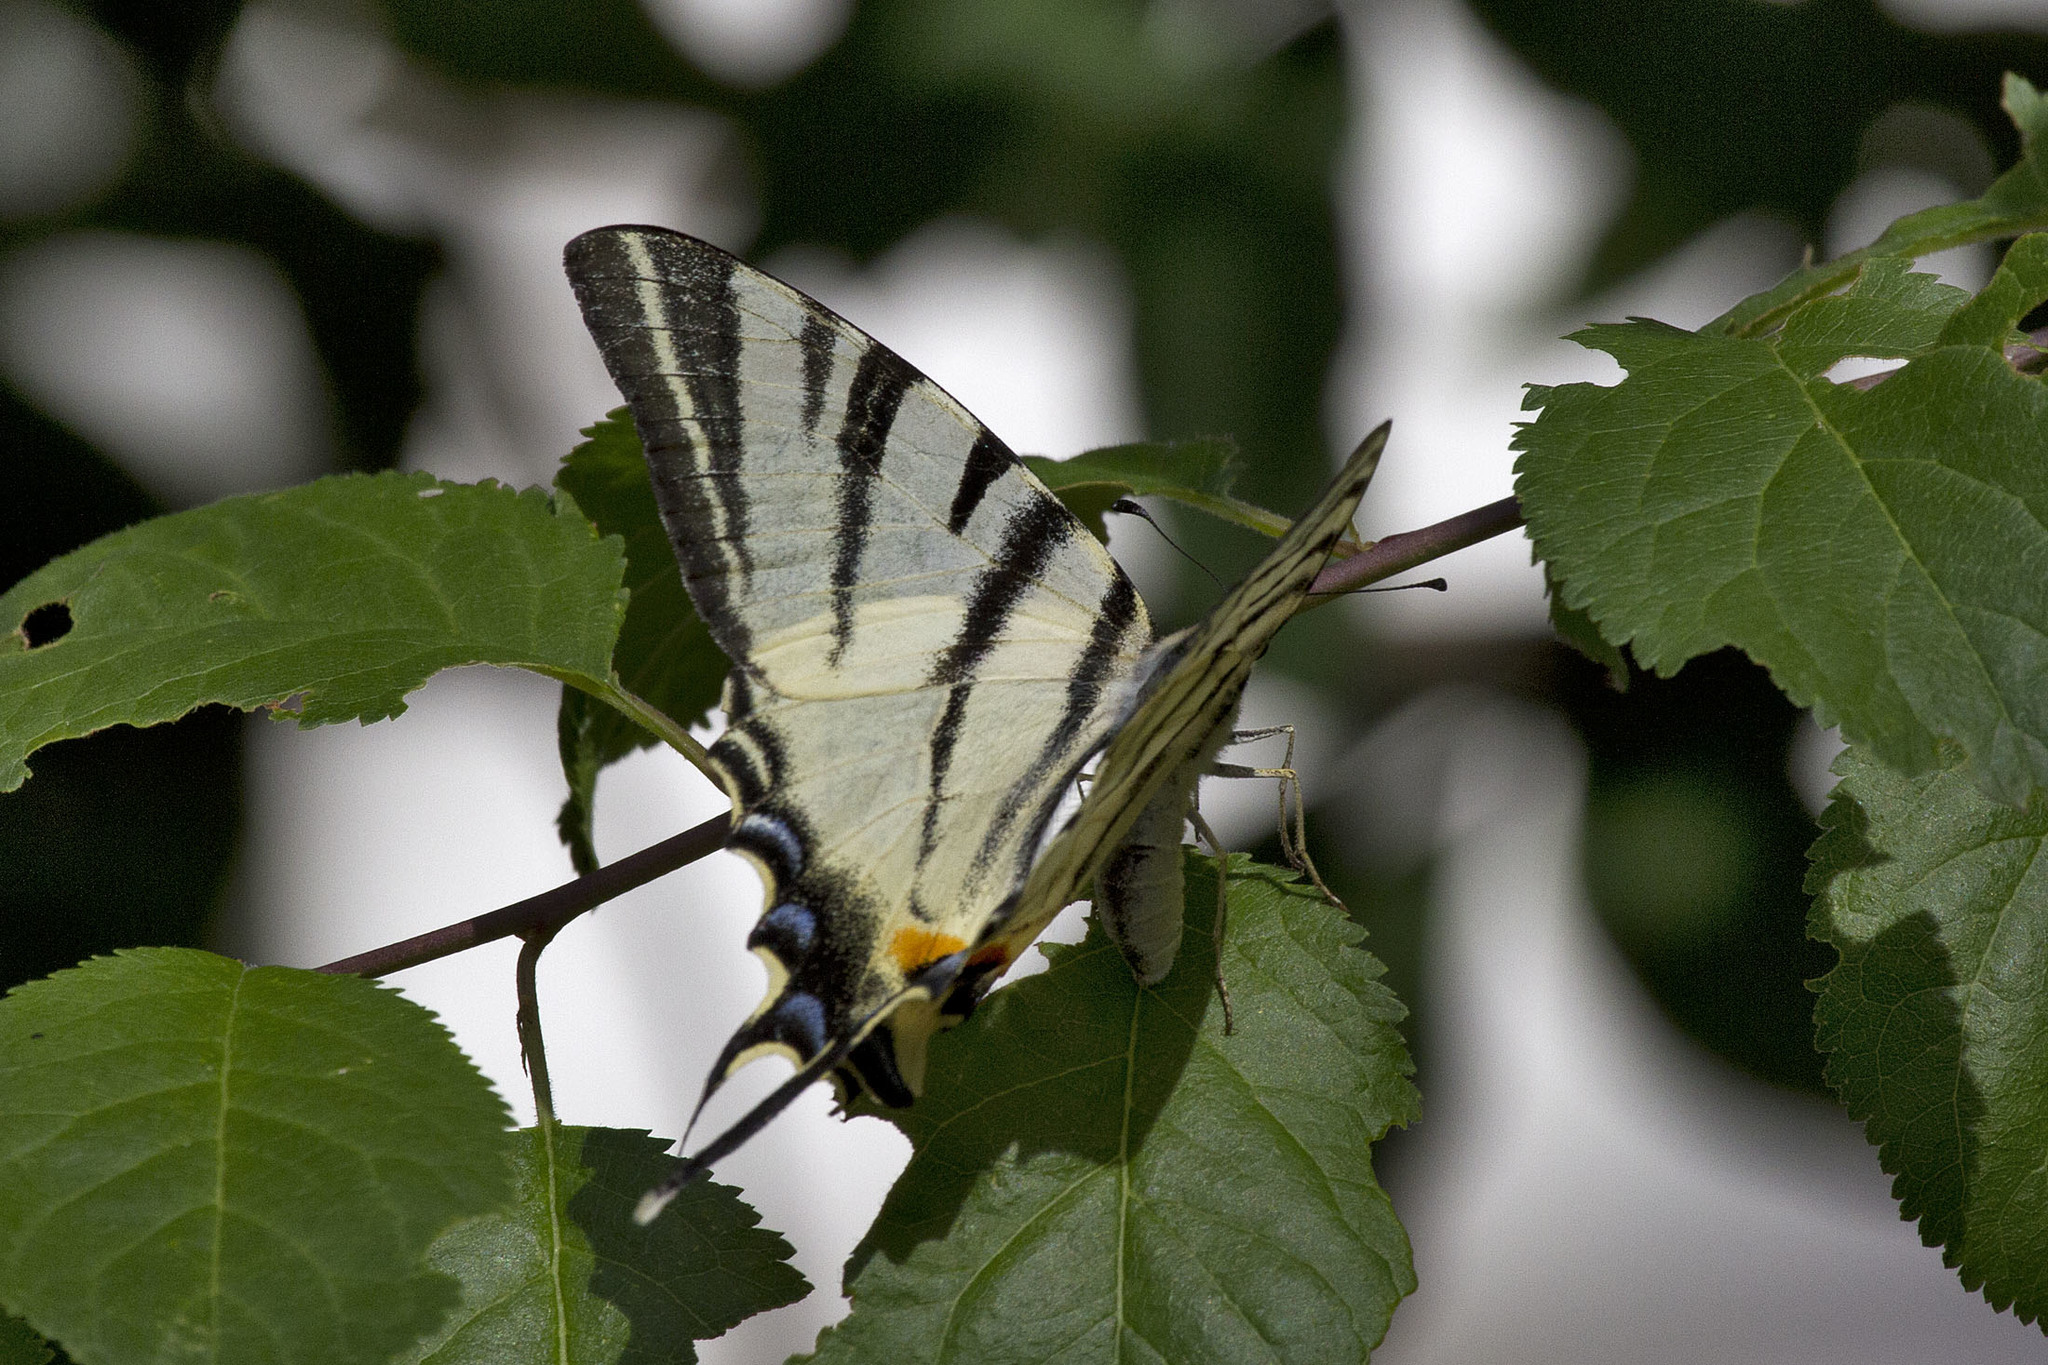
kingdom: Animalia
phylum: Arthropoda
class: Insecta
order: Lepidoptera
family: Papilionidae
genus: Iphiclides
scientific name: Iphiclides podalirius
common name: Scarce swallowtail
